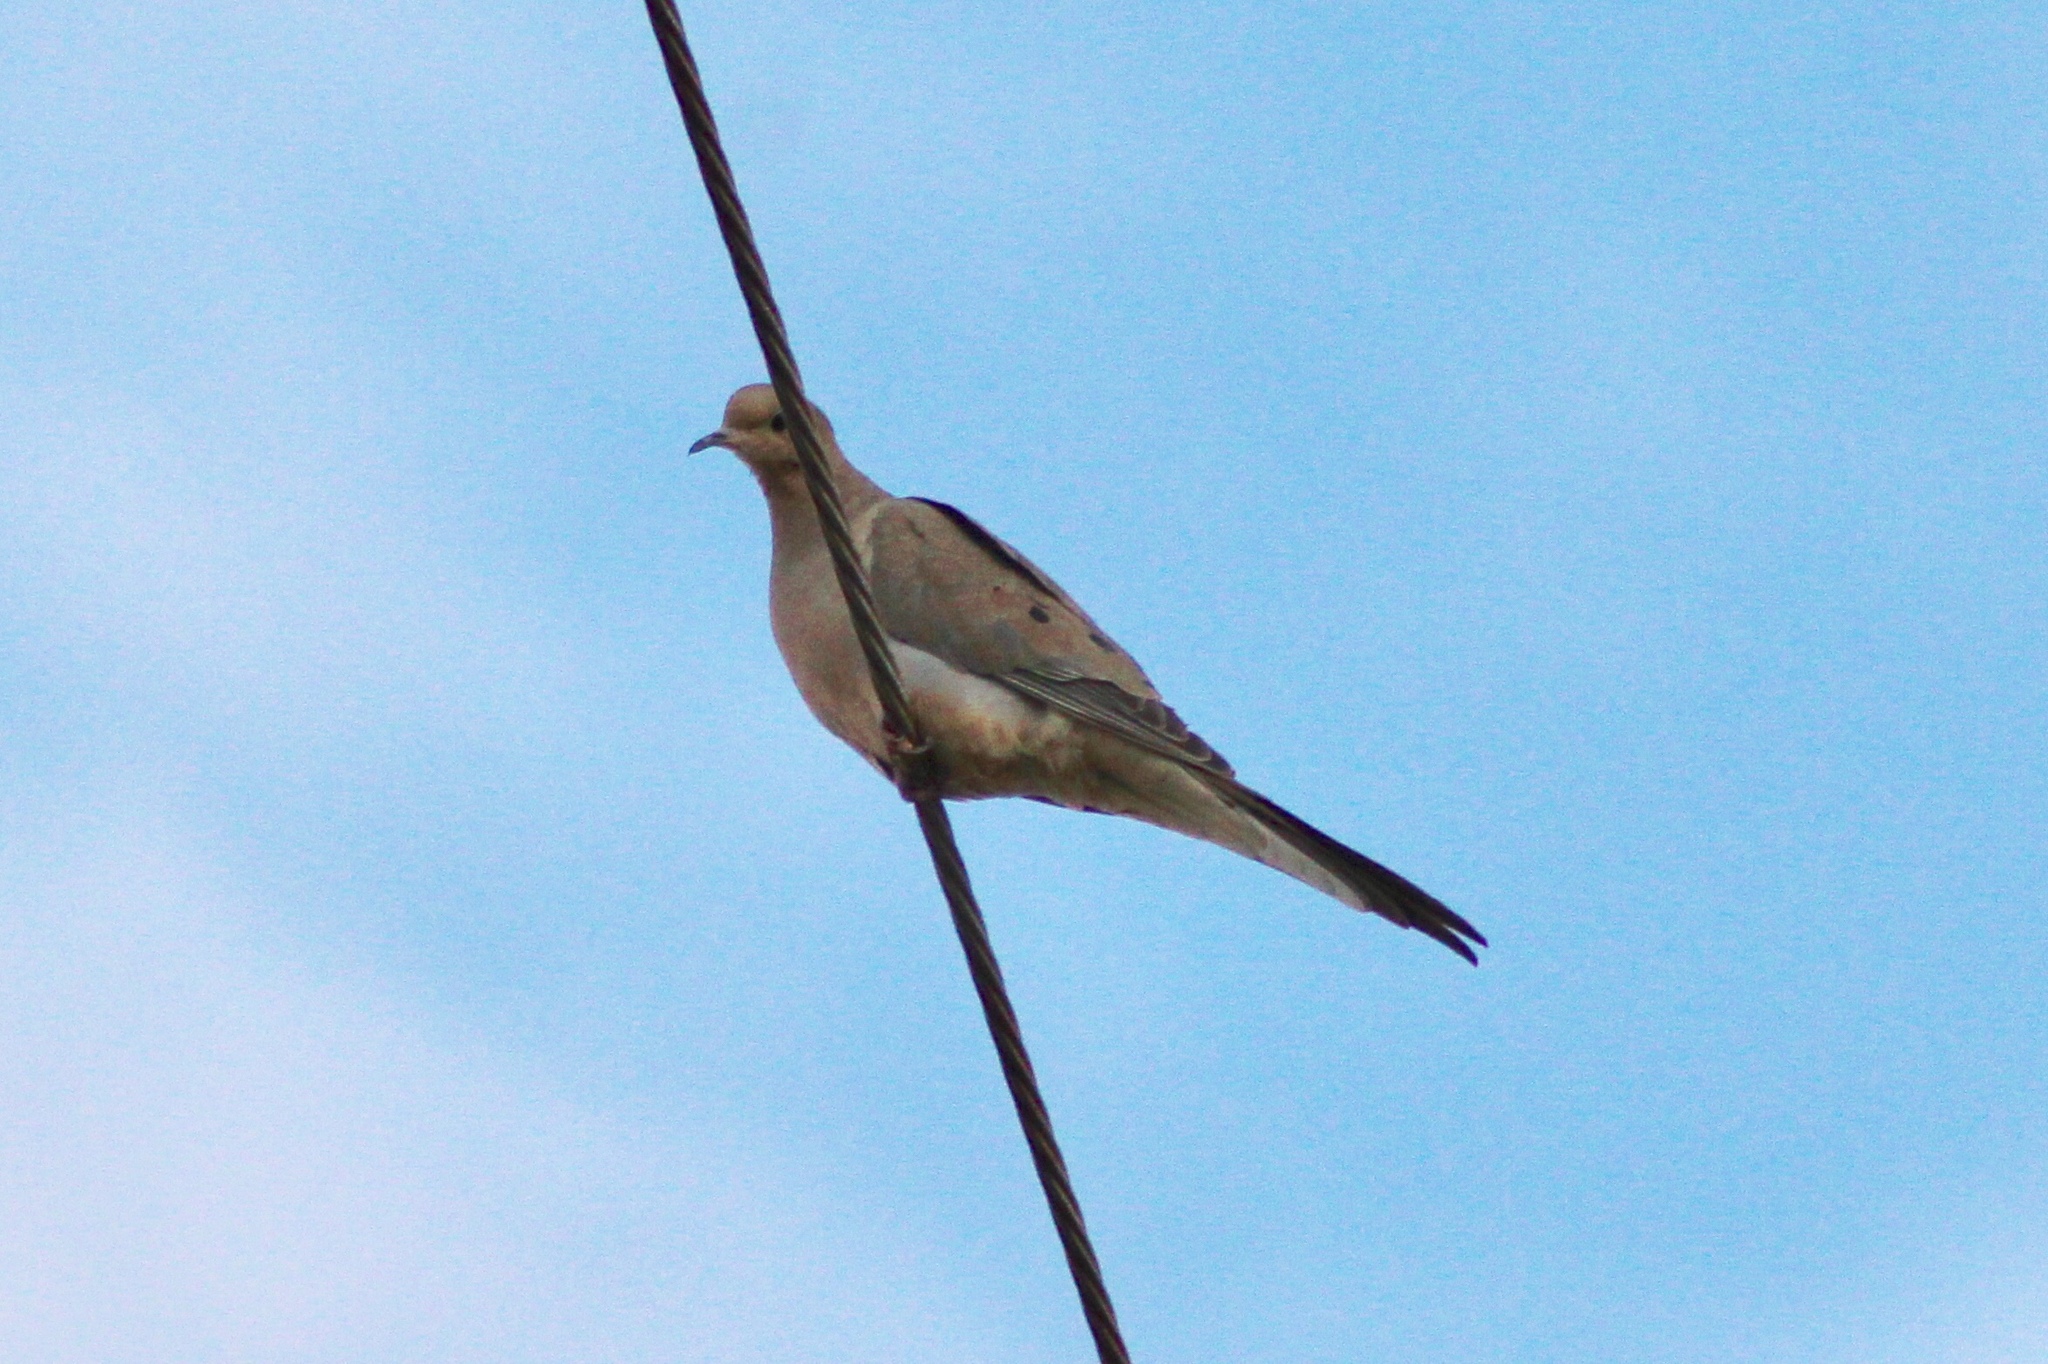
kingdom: Animalia
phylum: Chordata
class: Aves
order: Columbiformes
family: Columbidae
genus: Zenaida
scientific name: Zenaida macroura
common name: Mourning dove
